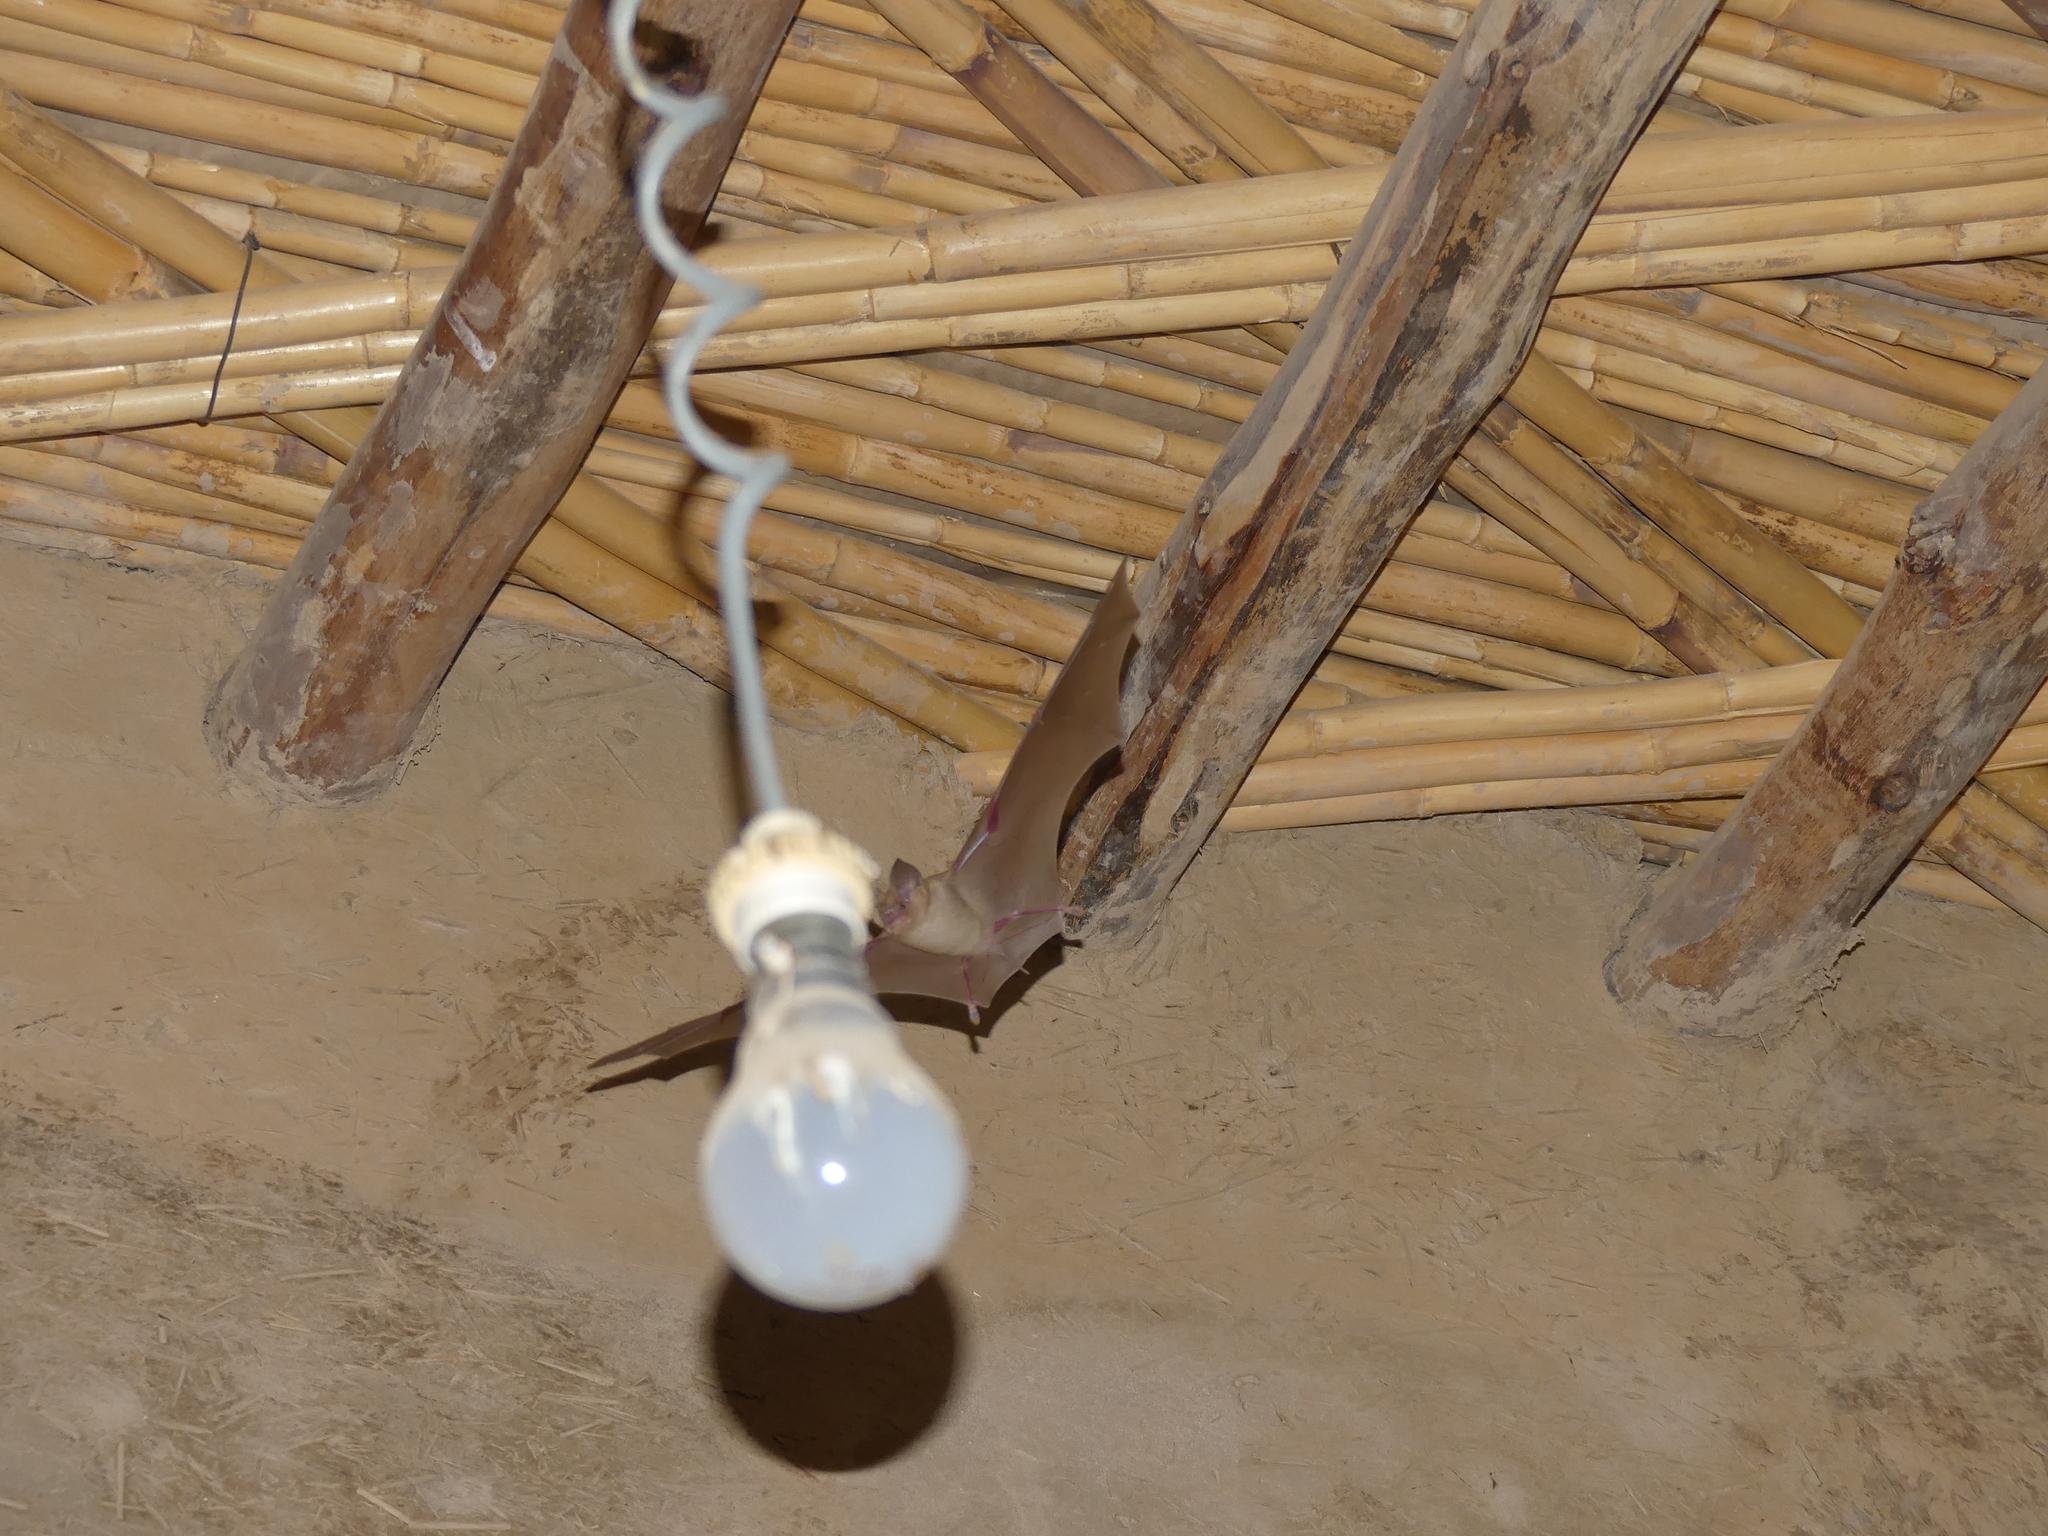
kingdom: Animalia
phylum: Chordata
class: Mammalia
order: Chiroptera
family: Hipposideridae
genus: Asellia
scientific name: Asellia tridens
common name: Trident leaf-nosed bat
